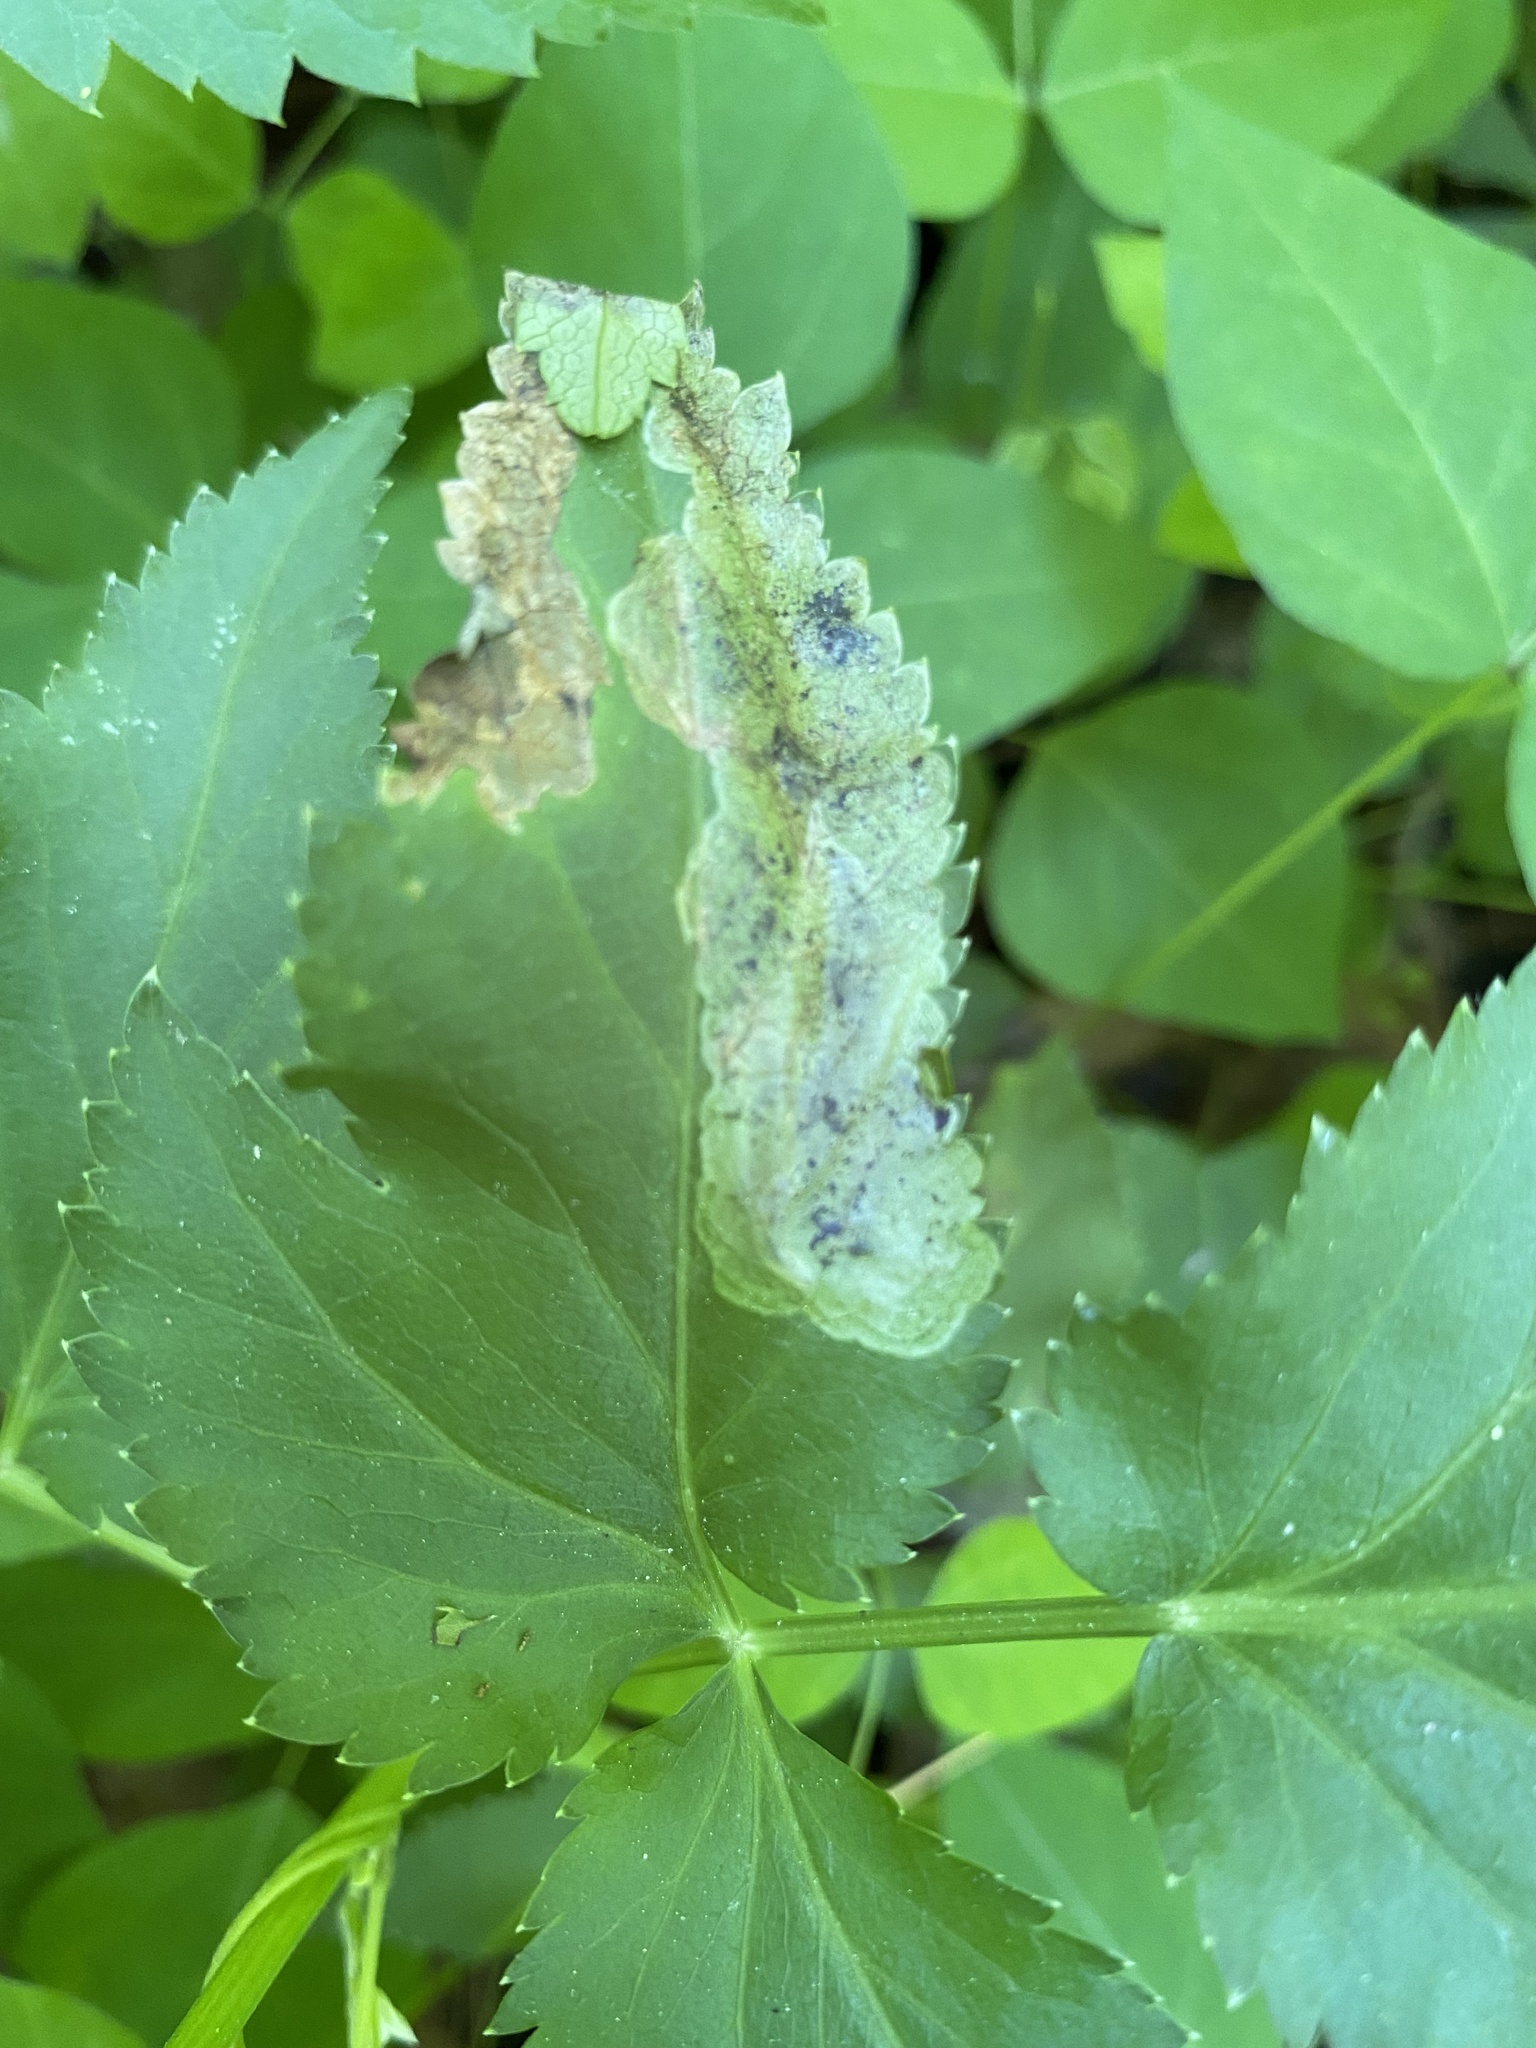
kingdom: Animalia
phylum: Arthropoda
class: Insecta
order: Diptera
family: Tephritidae
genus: Euleia
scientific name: Euleia fratria
